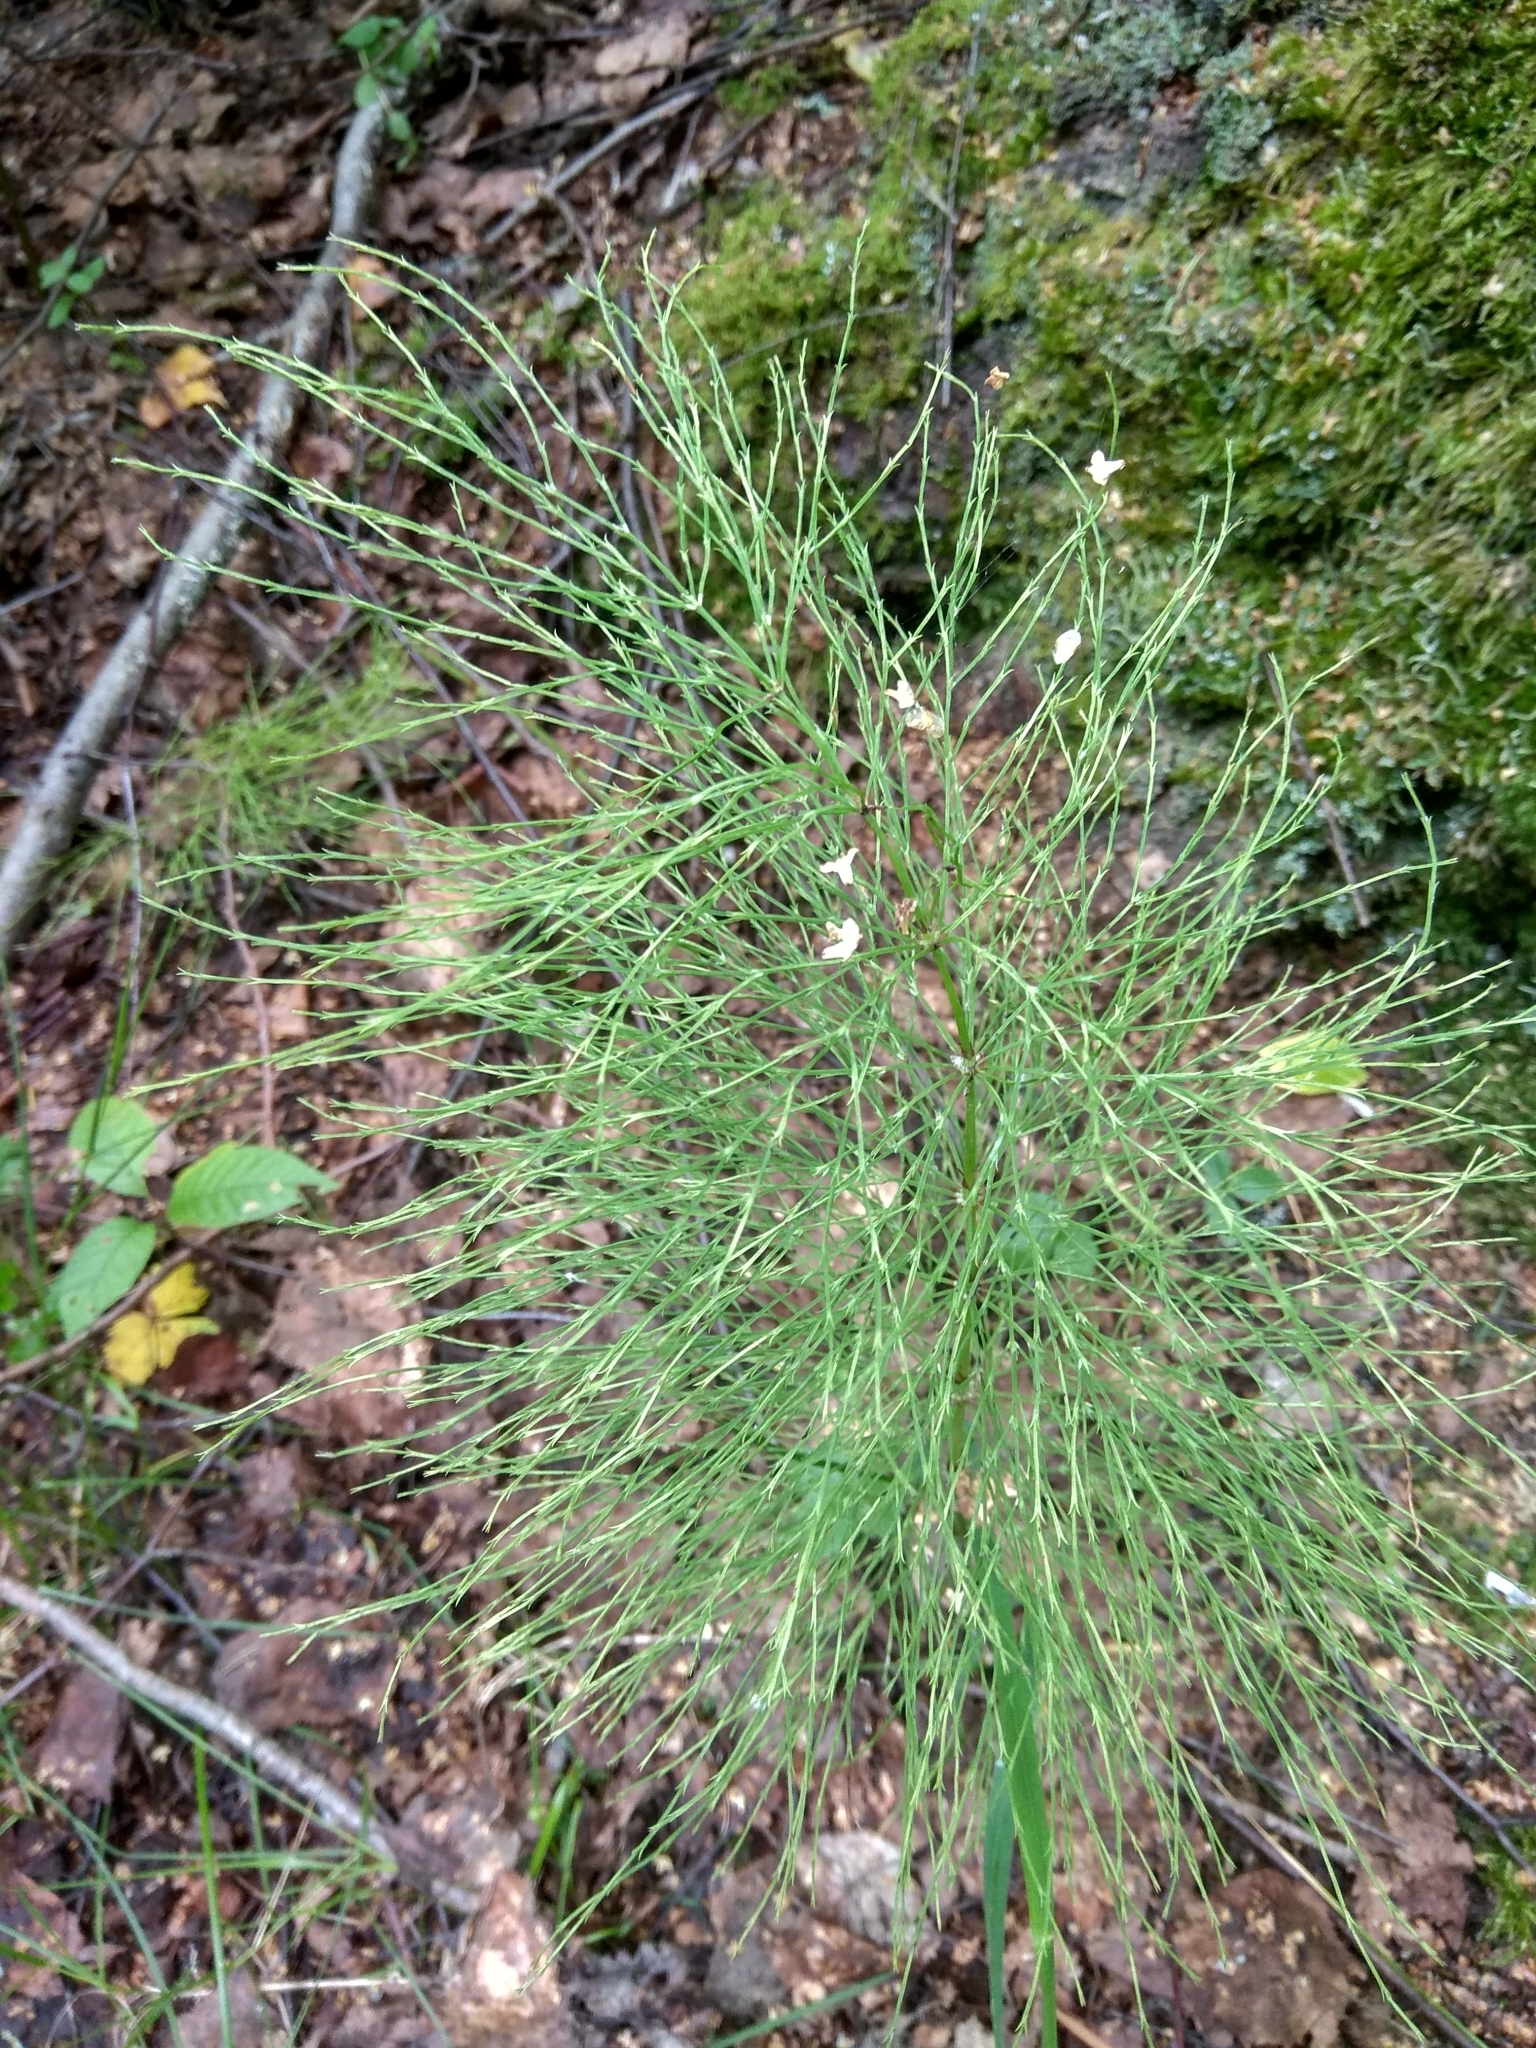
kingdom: Plantae
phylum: Tracheophyta
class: Polypodiopsida
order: Equisetales
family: Equisetaceae
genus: Equisetum
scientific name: Equisetum sylvaticum
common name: Wood horsetail
